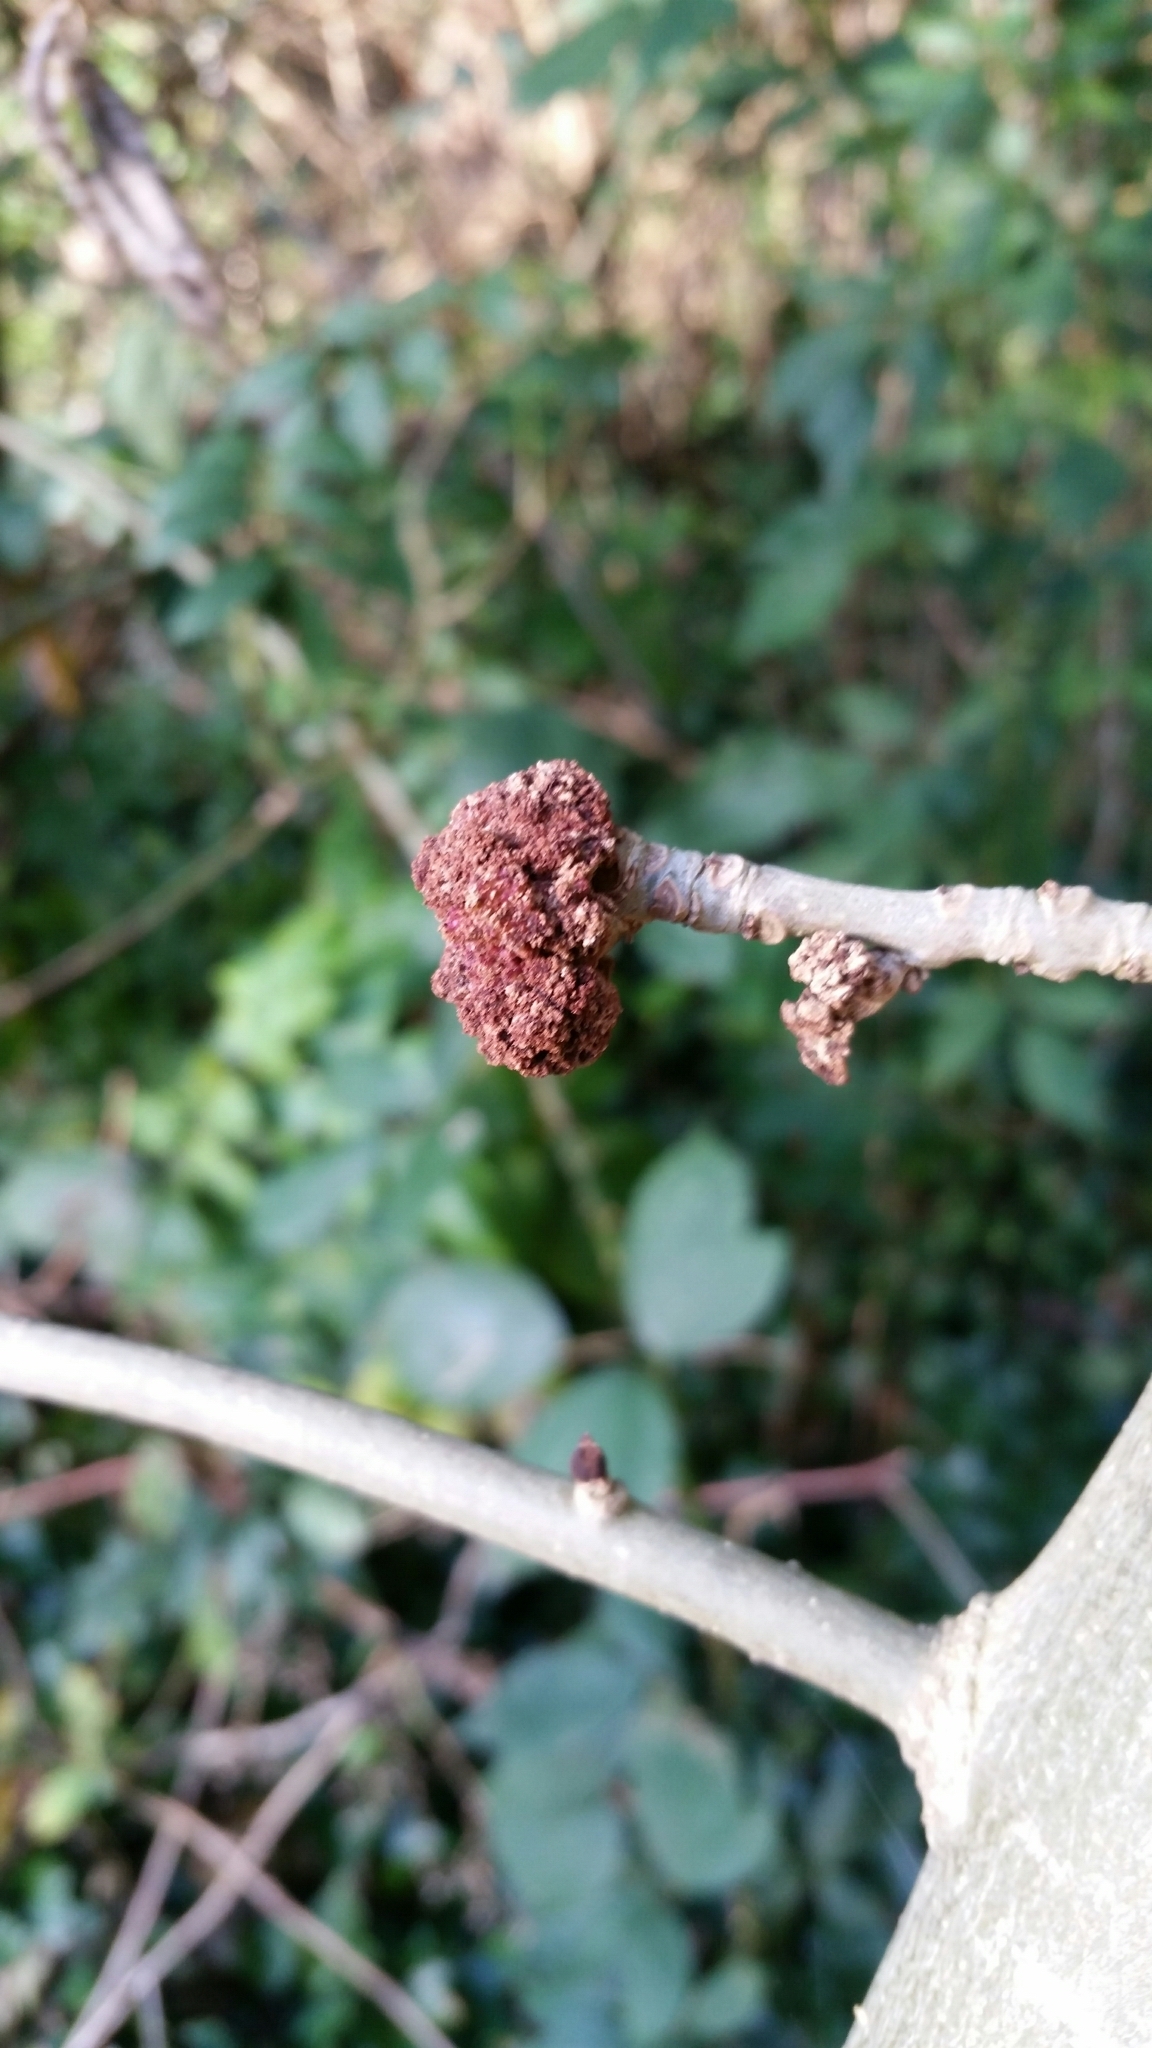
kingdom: Animalia
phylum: Arthropoda
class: Arachnida
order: Trombidiformes
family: Eriophyidae
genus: Aceria
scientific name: Aceria fraxinivora
